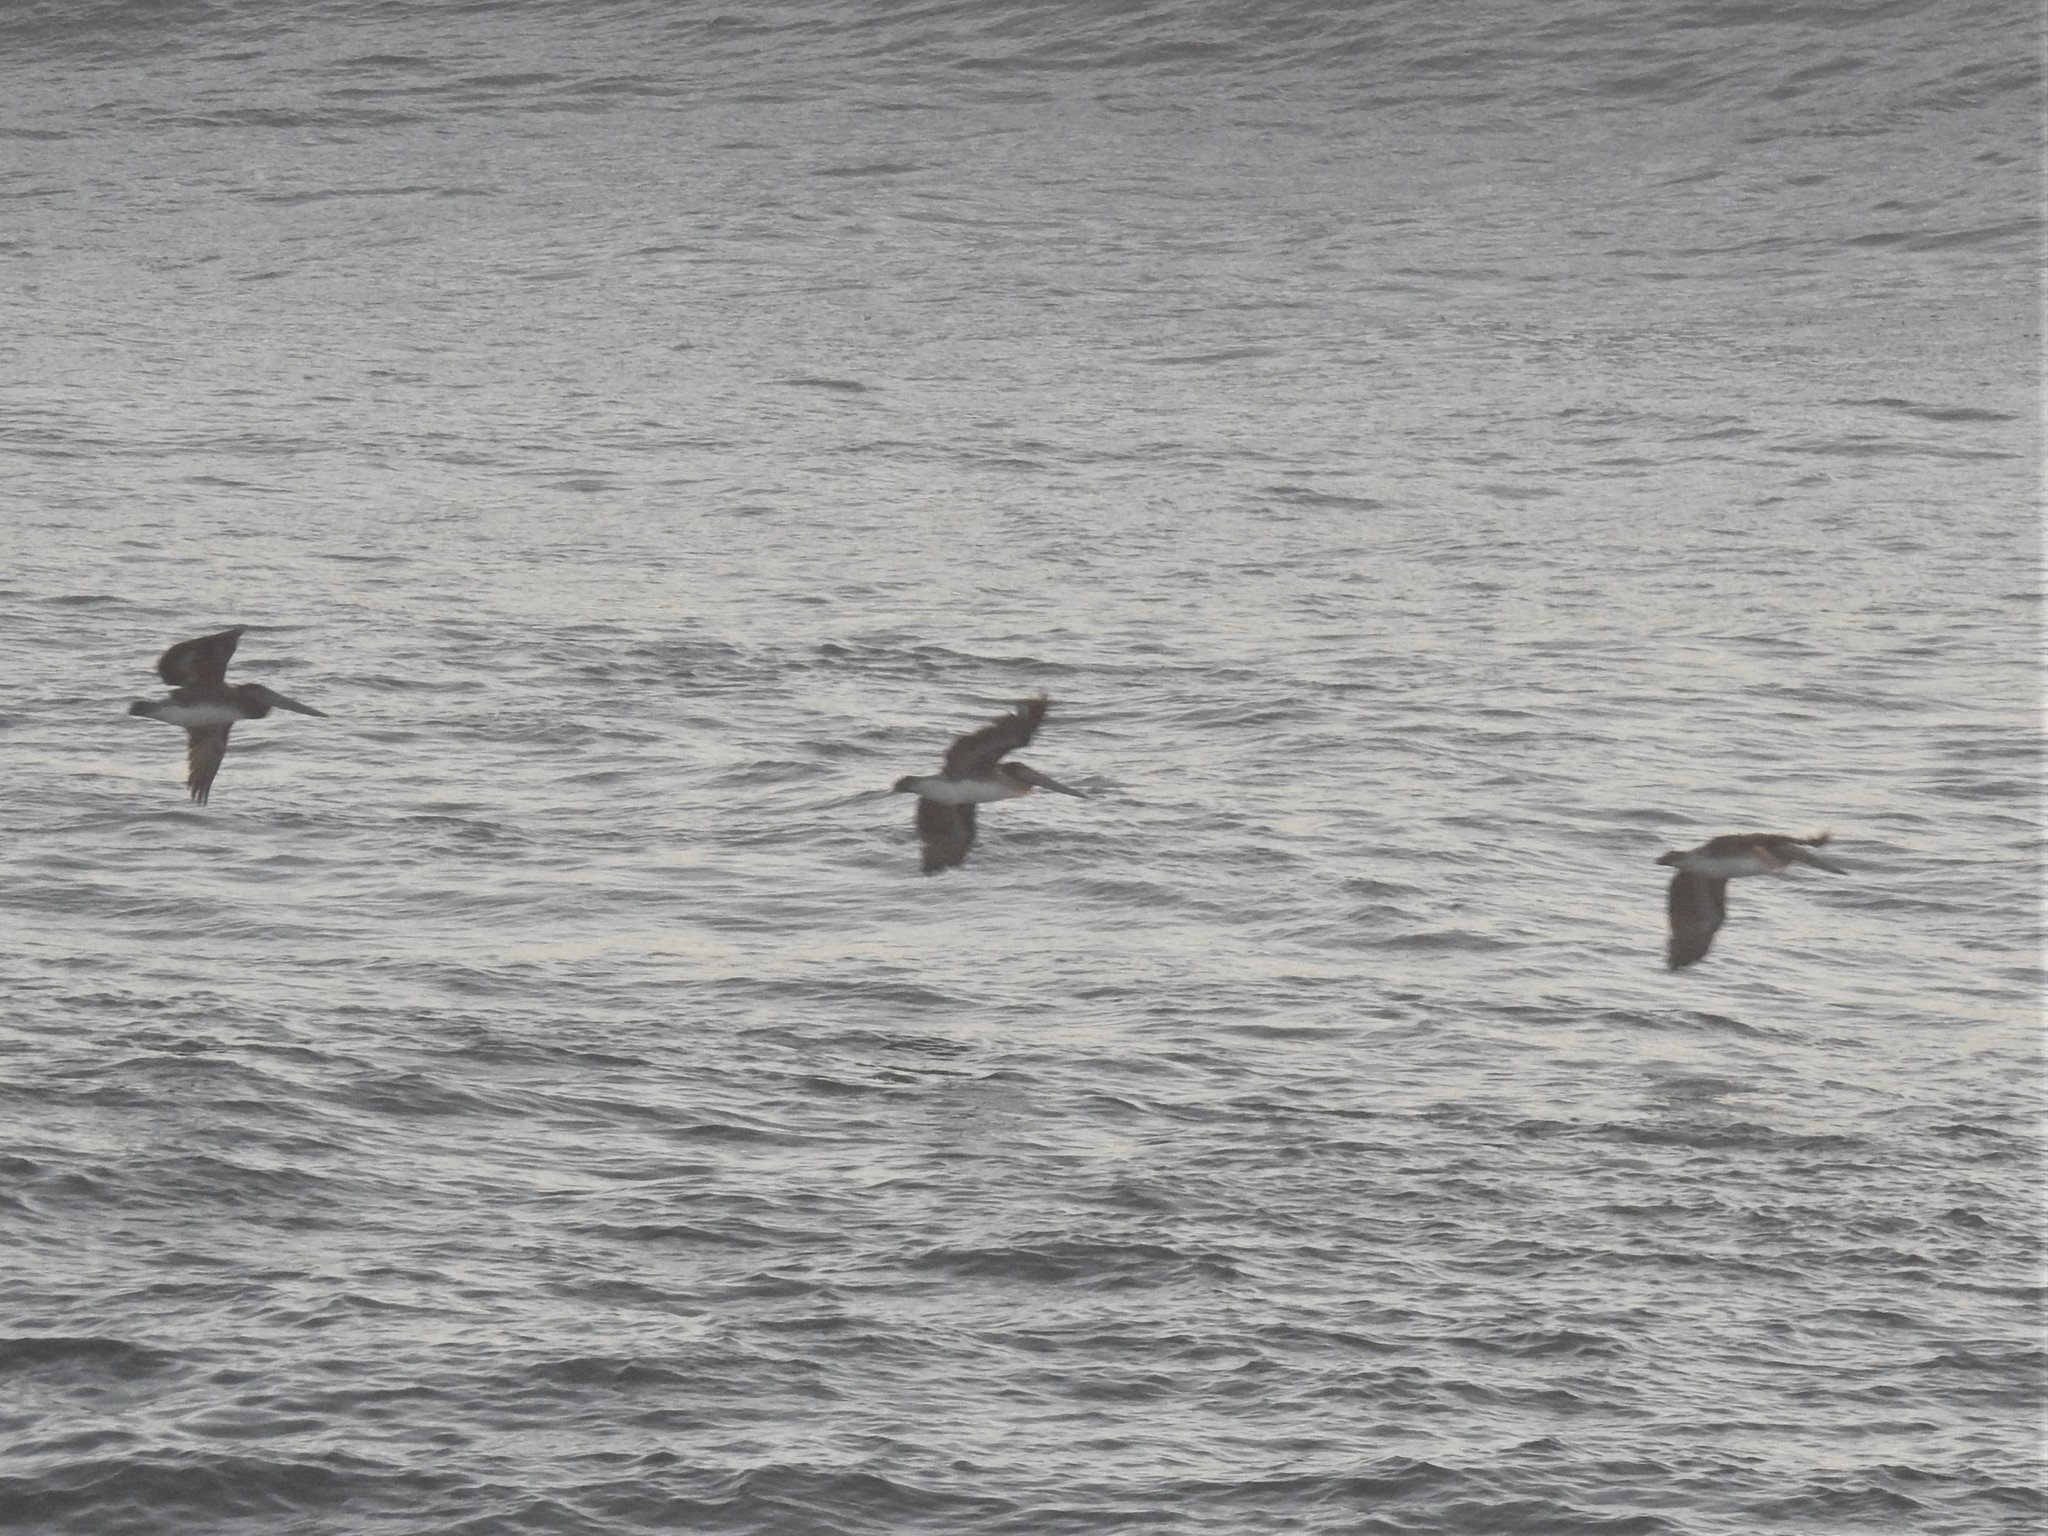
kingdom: Animalia
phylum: Chordata
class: Aves
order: Pelecaniformes
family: Pelecanidae
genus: Pelecanus
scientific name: Pelecanus occidentalis
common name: Brown pelican
